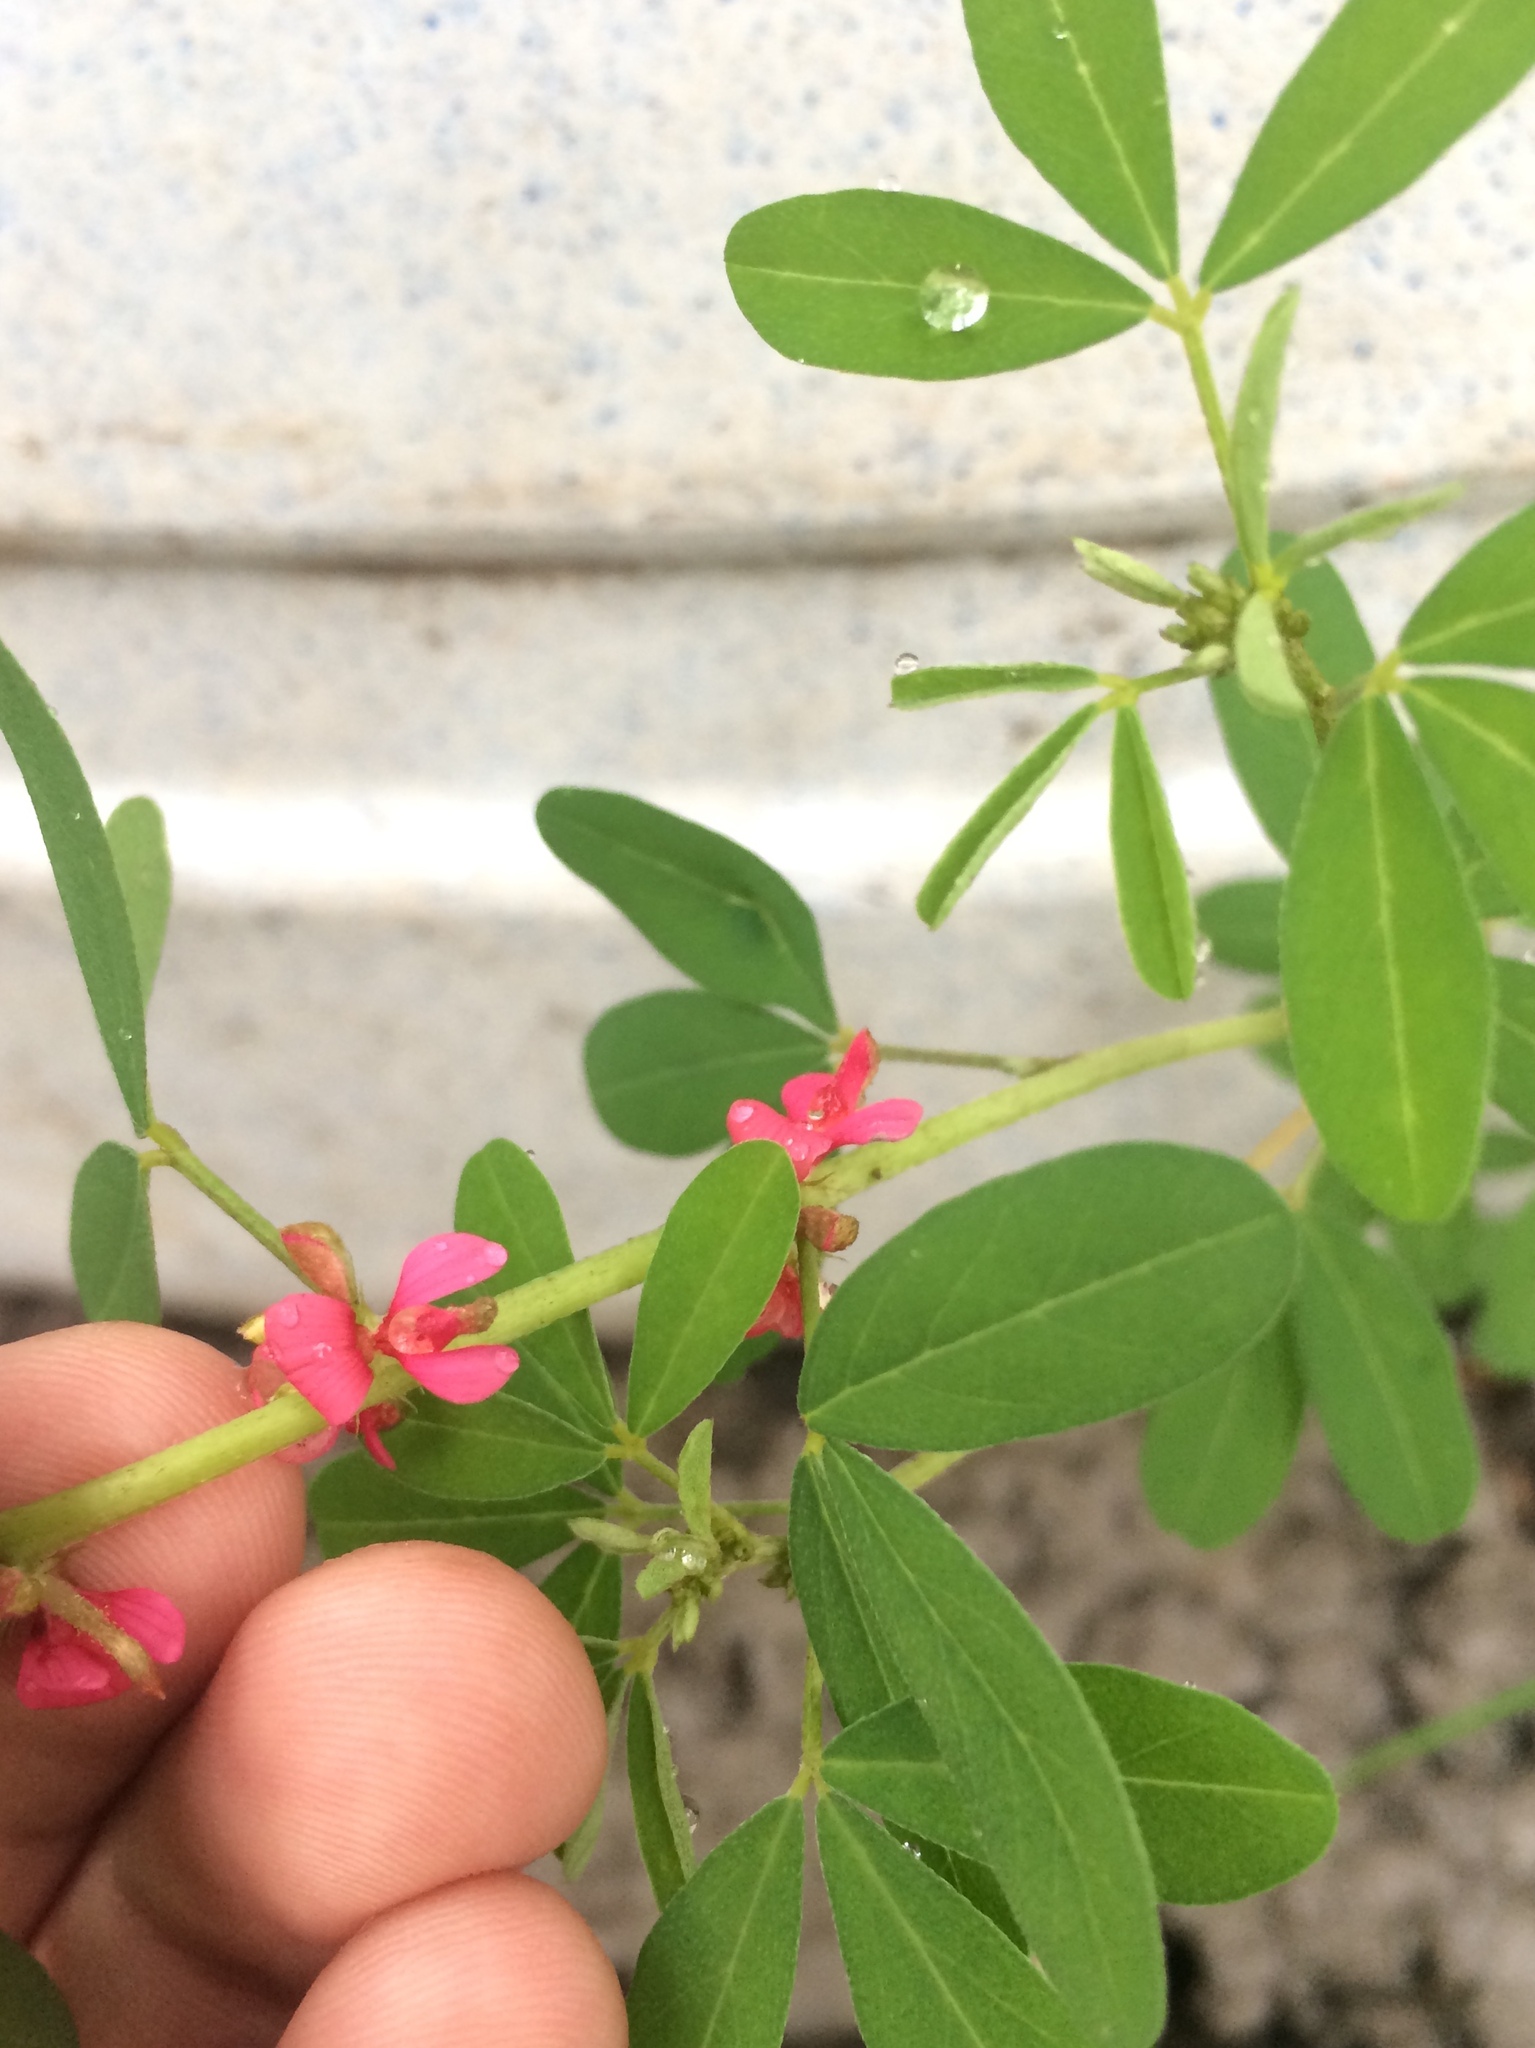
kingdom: Plantae
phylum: Tracheophyta
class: Magnoliopsida
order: Fabales
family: Fabaceae
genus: Indigofera
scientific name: Indigofera trifoliata
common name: Threeleaf indigo
